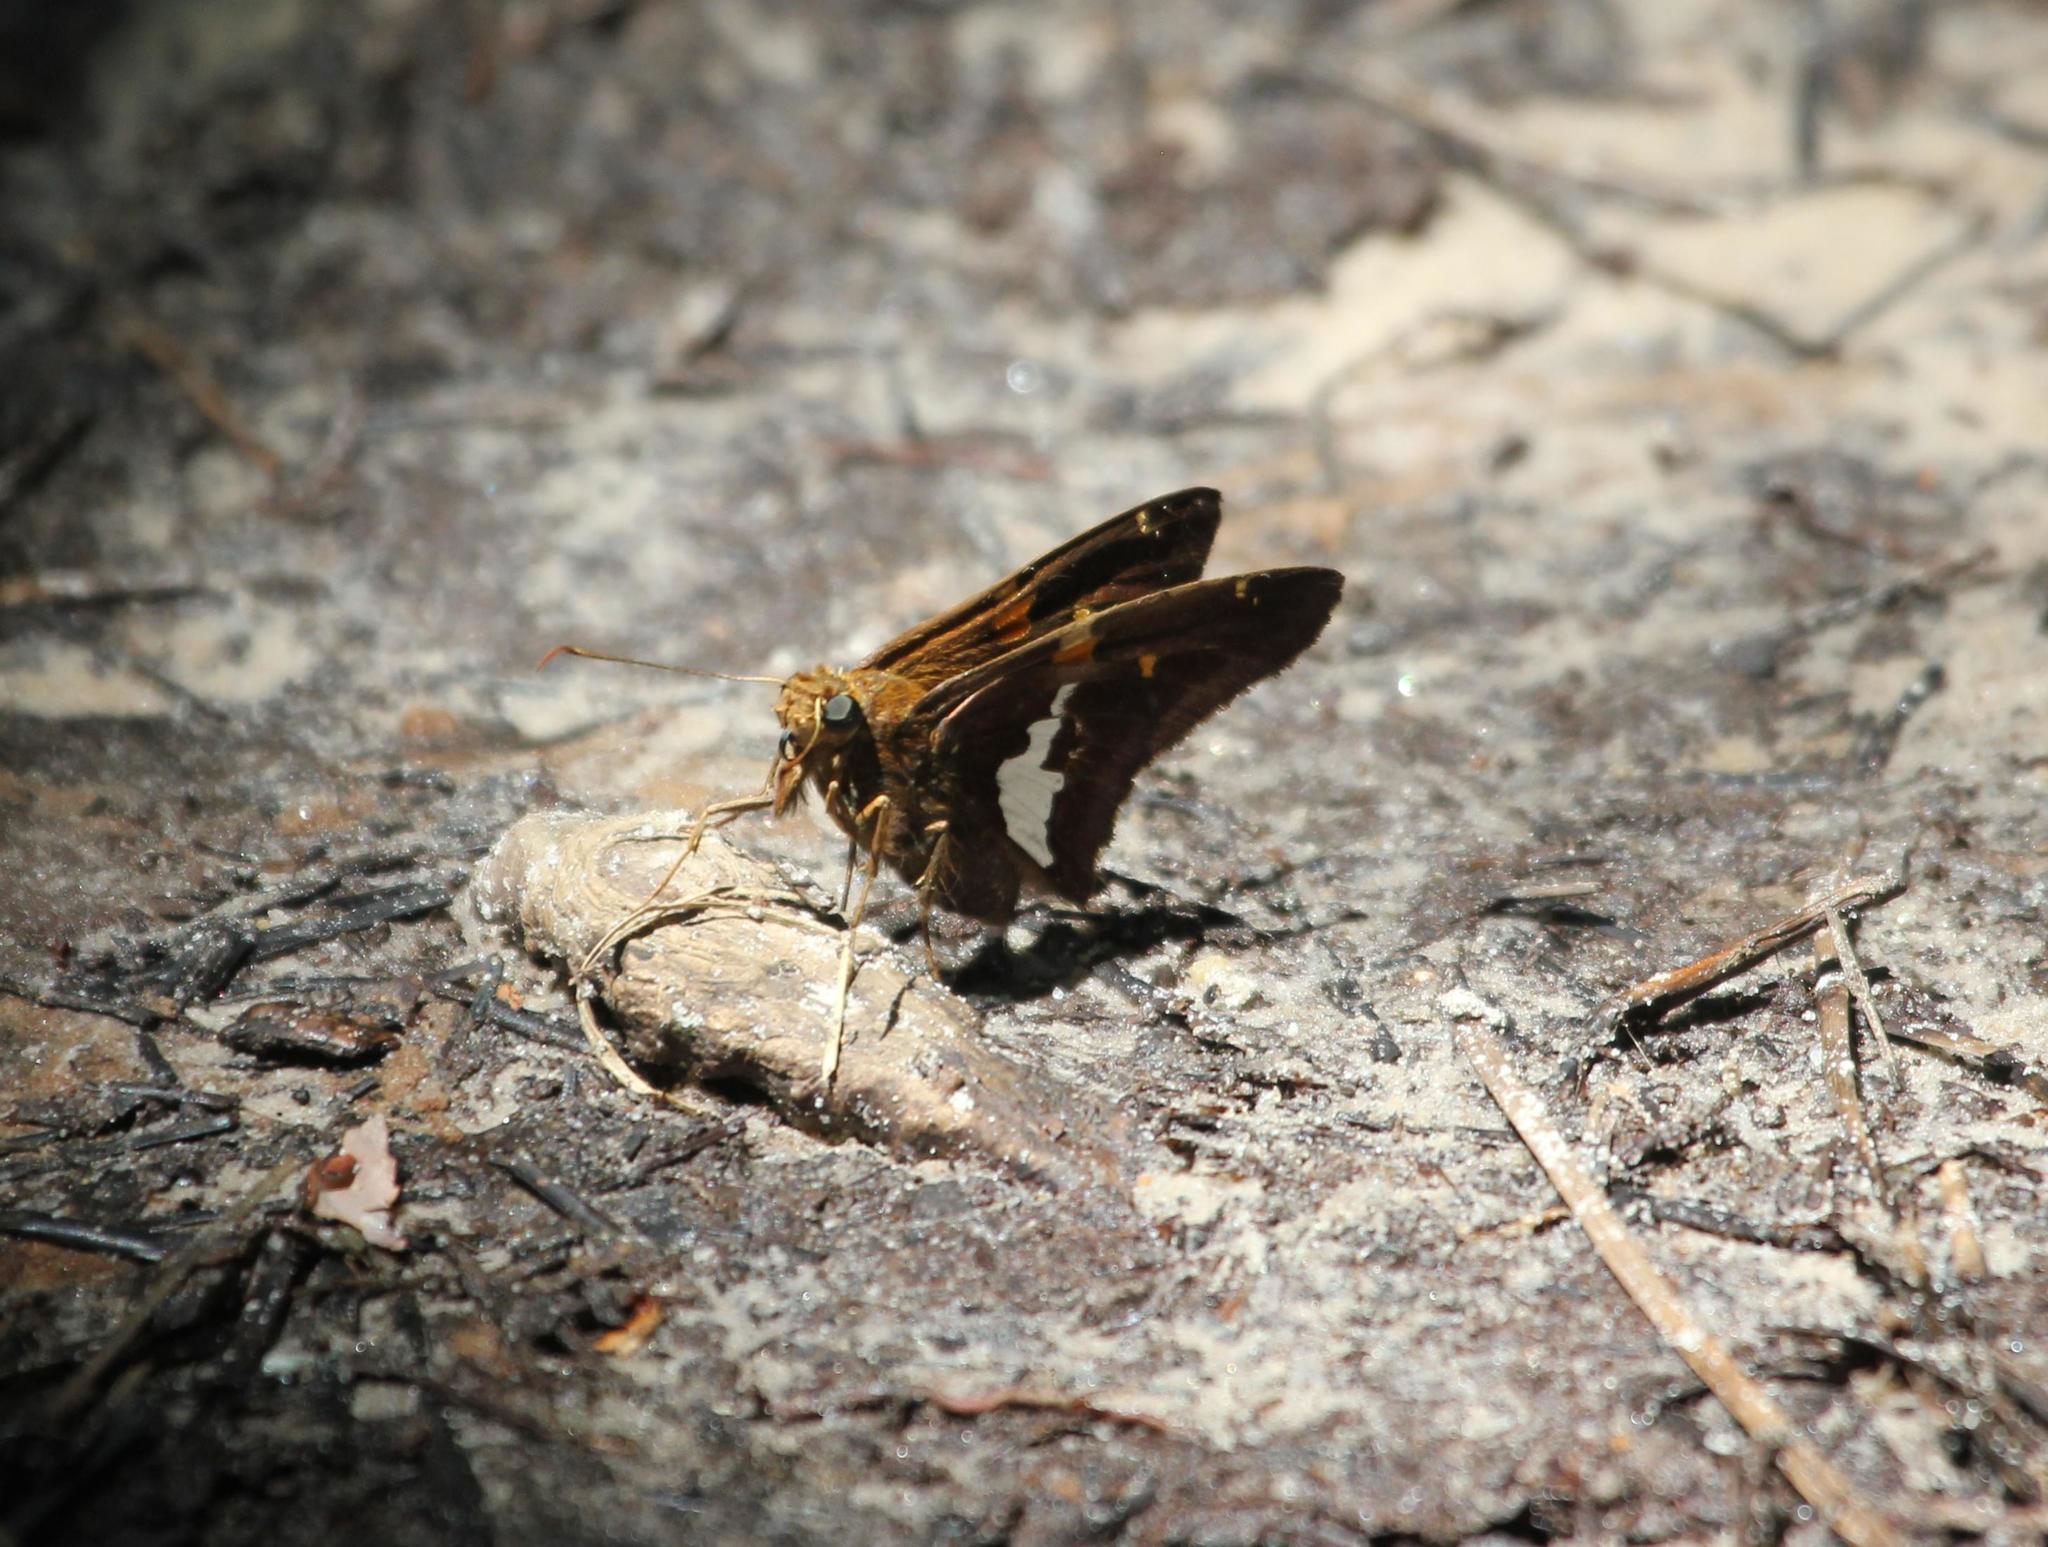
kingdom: Animalia
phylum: Arthropoda
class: Insecta
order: Lepidoptera
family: Hesperiidae
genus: Epargyreus
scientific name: Epargyreus clarus
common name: Silver-spotted skipper
